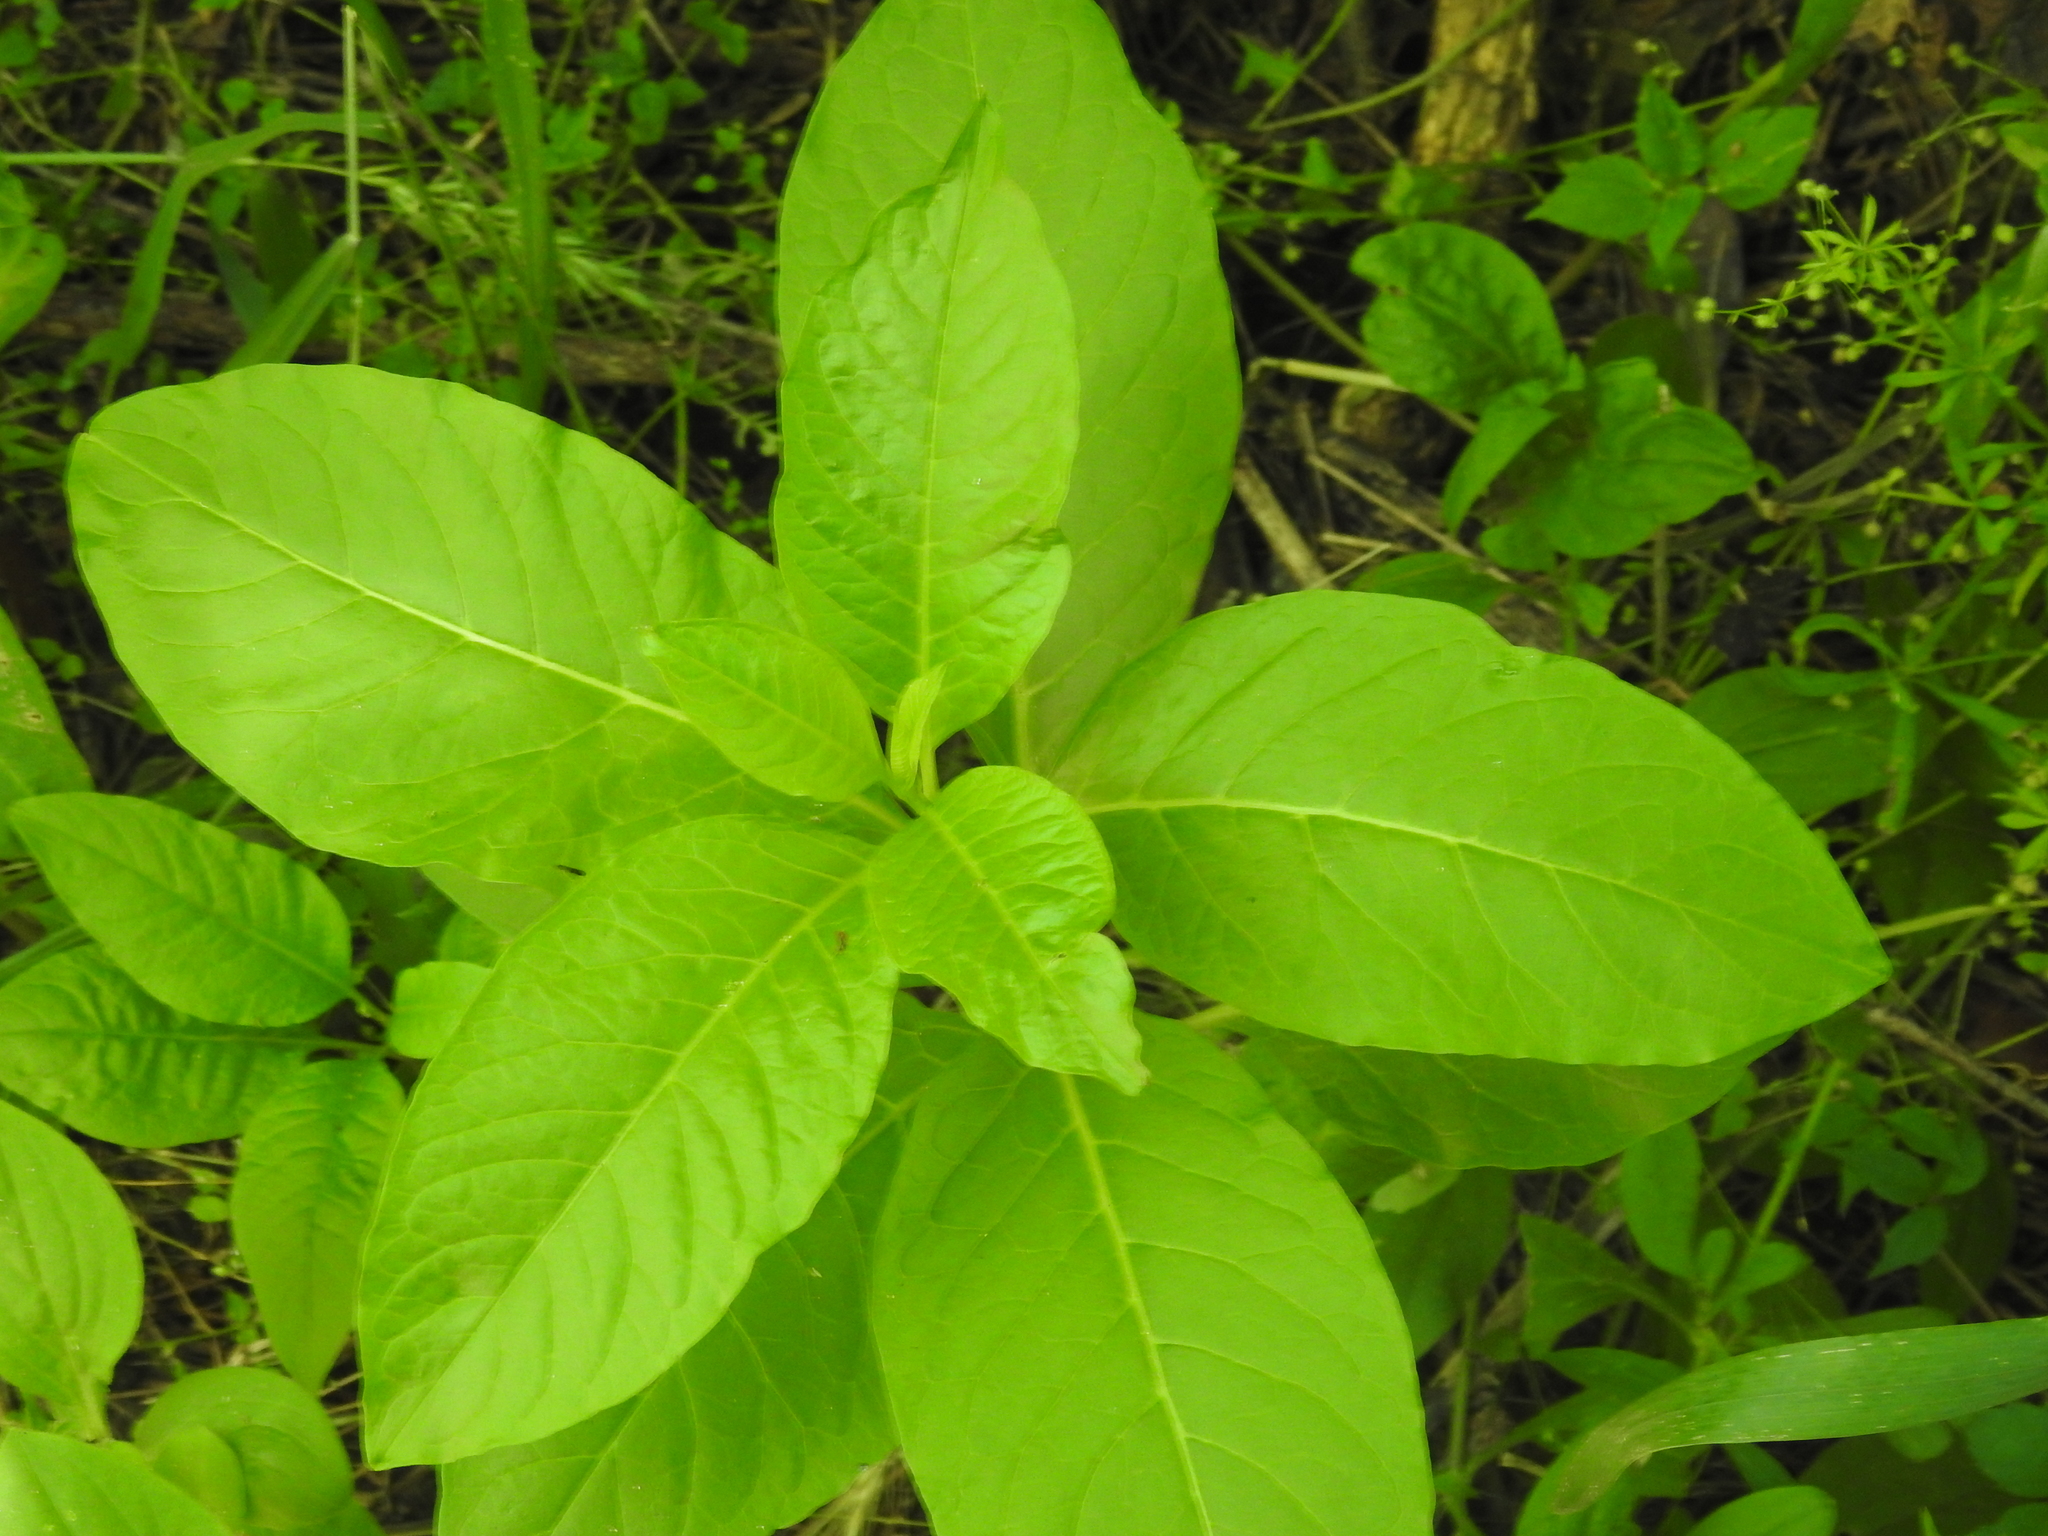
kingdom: Plantae
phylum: Tracheophyta
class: Magnoliopsida
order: Caryophyllales
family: Phytolaccaceae
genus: Phytolacca
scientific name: Phytolacca americana
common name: American pokeweed
